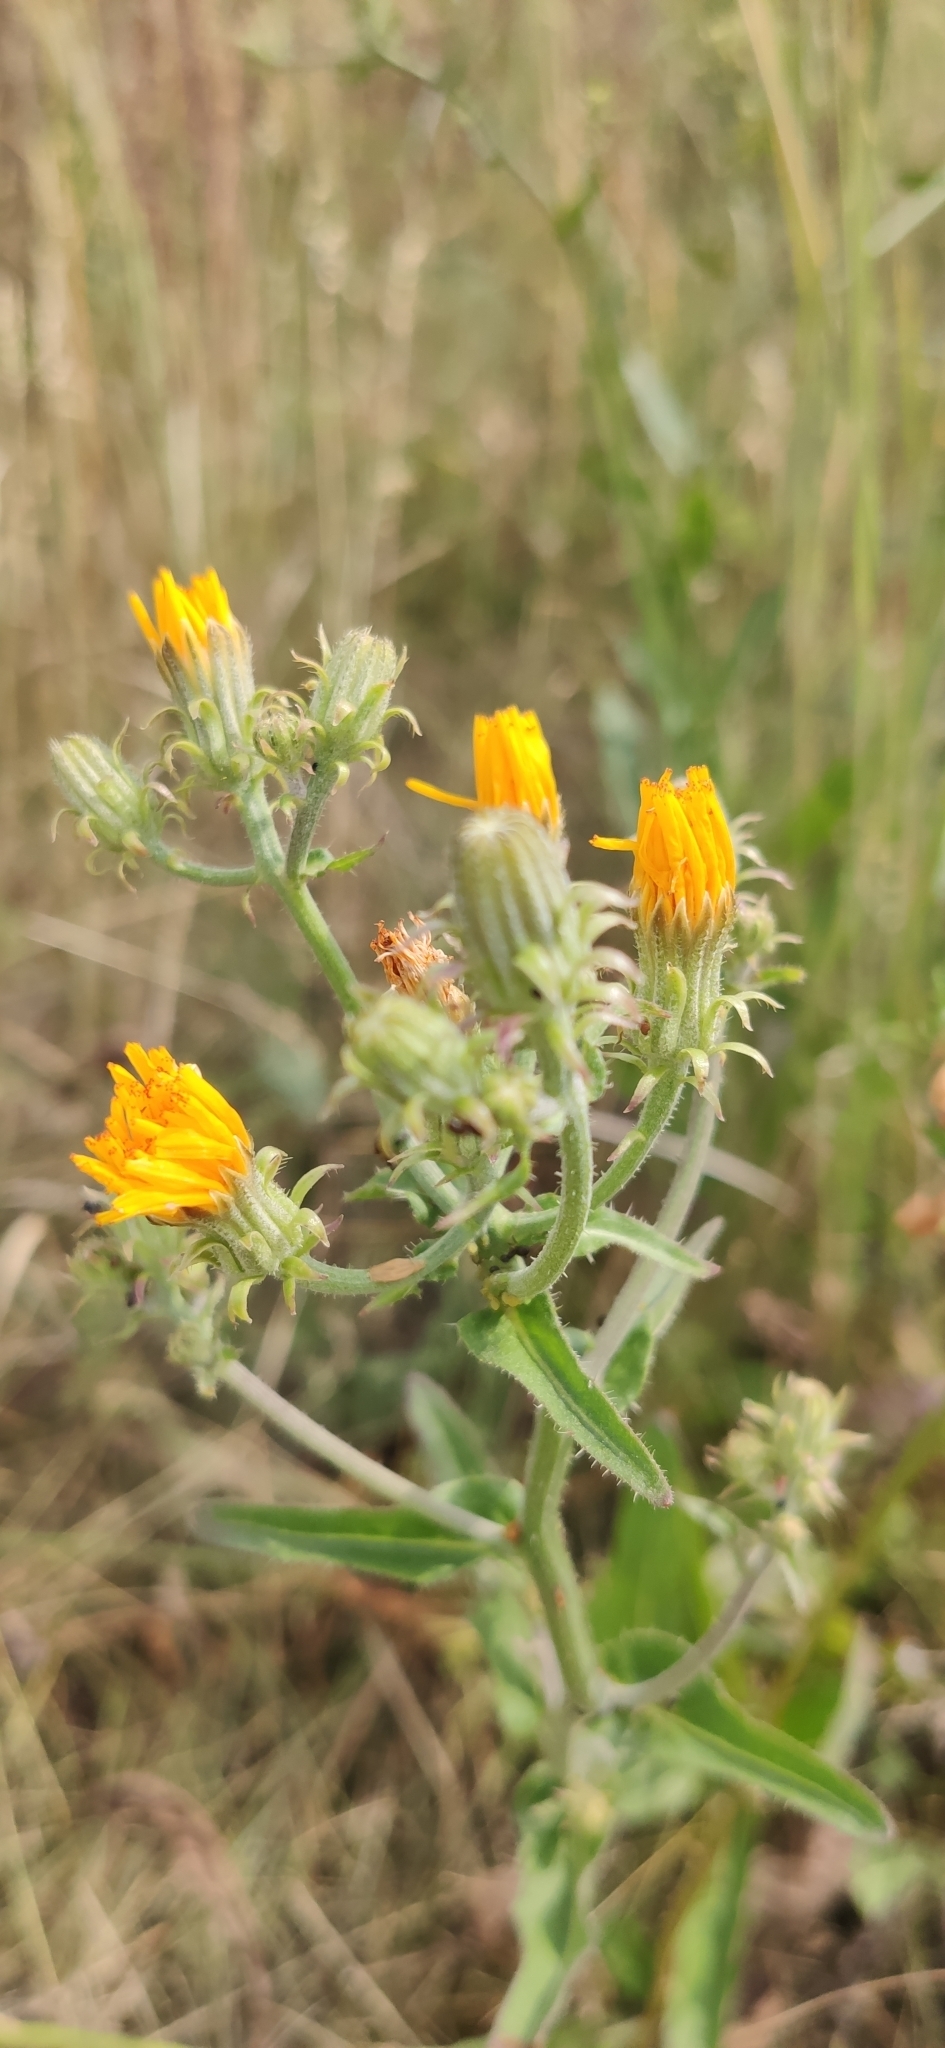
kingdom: Plantae
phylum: Tracheophyta
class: Magnoliopsida
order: Asterales
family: Asteraceae
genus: Picris
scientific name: Picris hieracioides
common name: Hawkweed oxtongue
